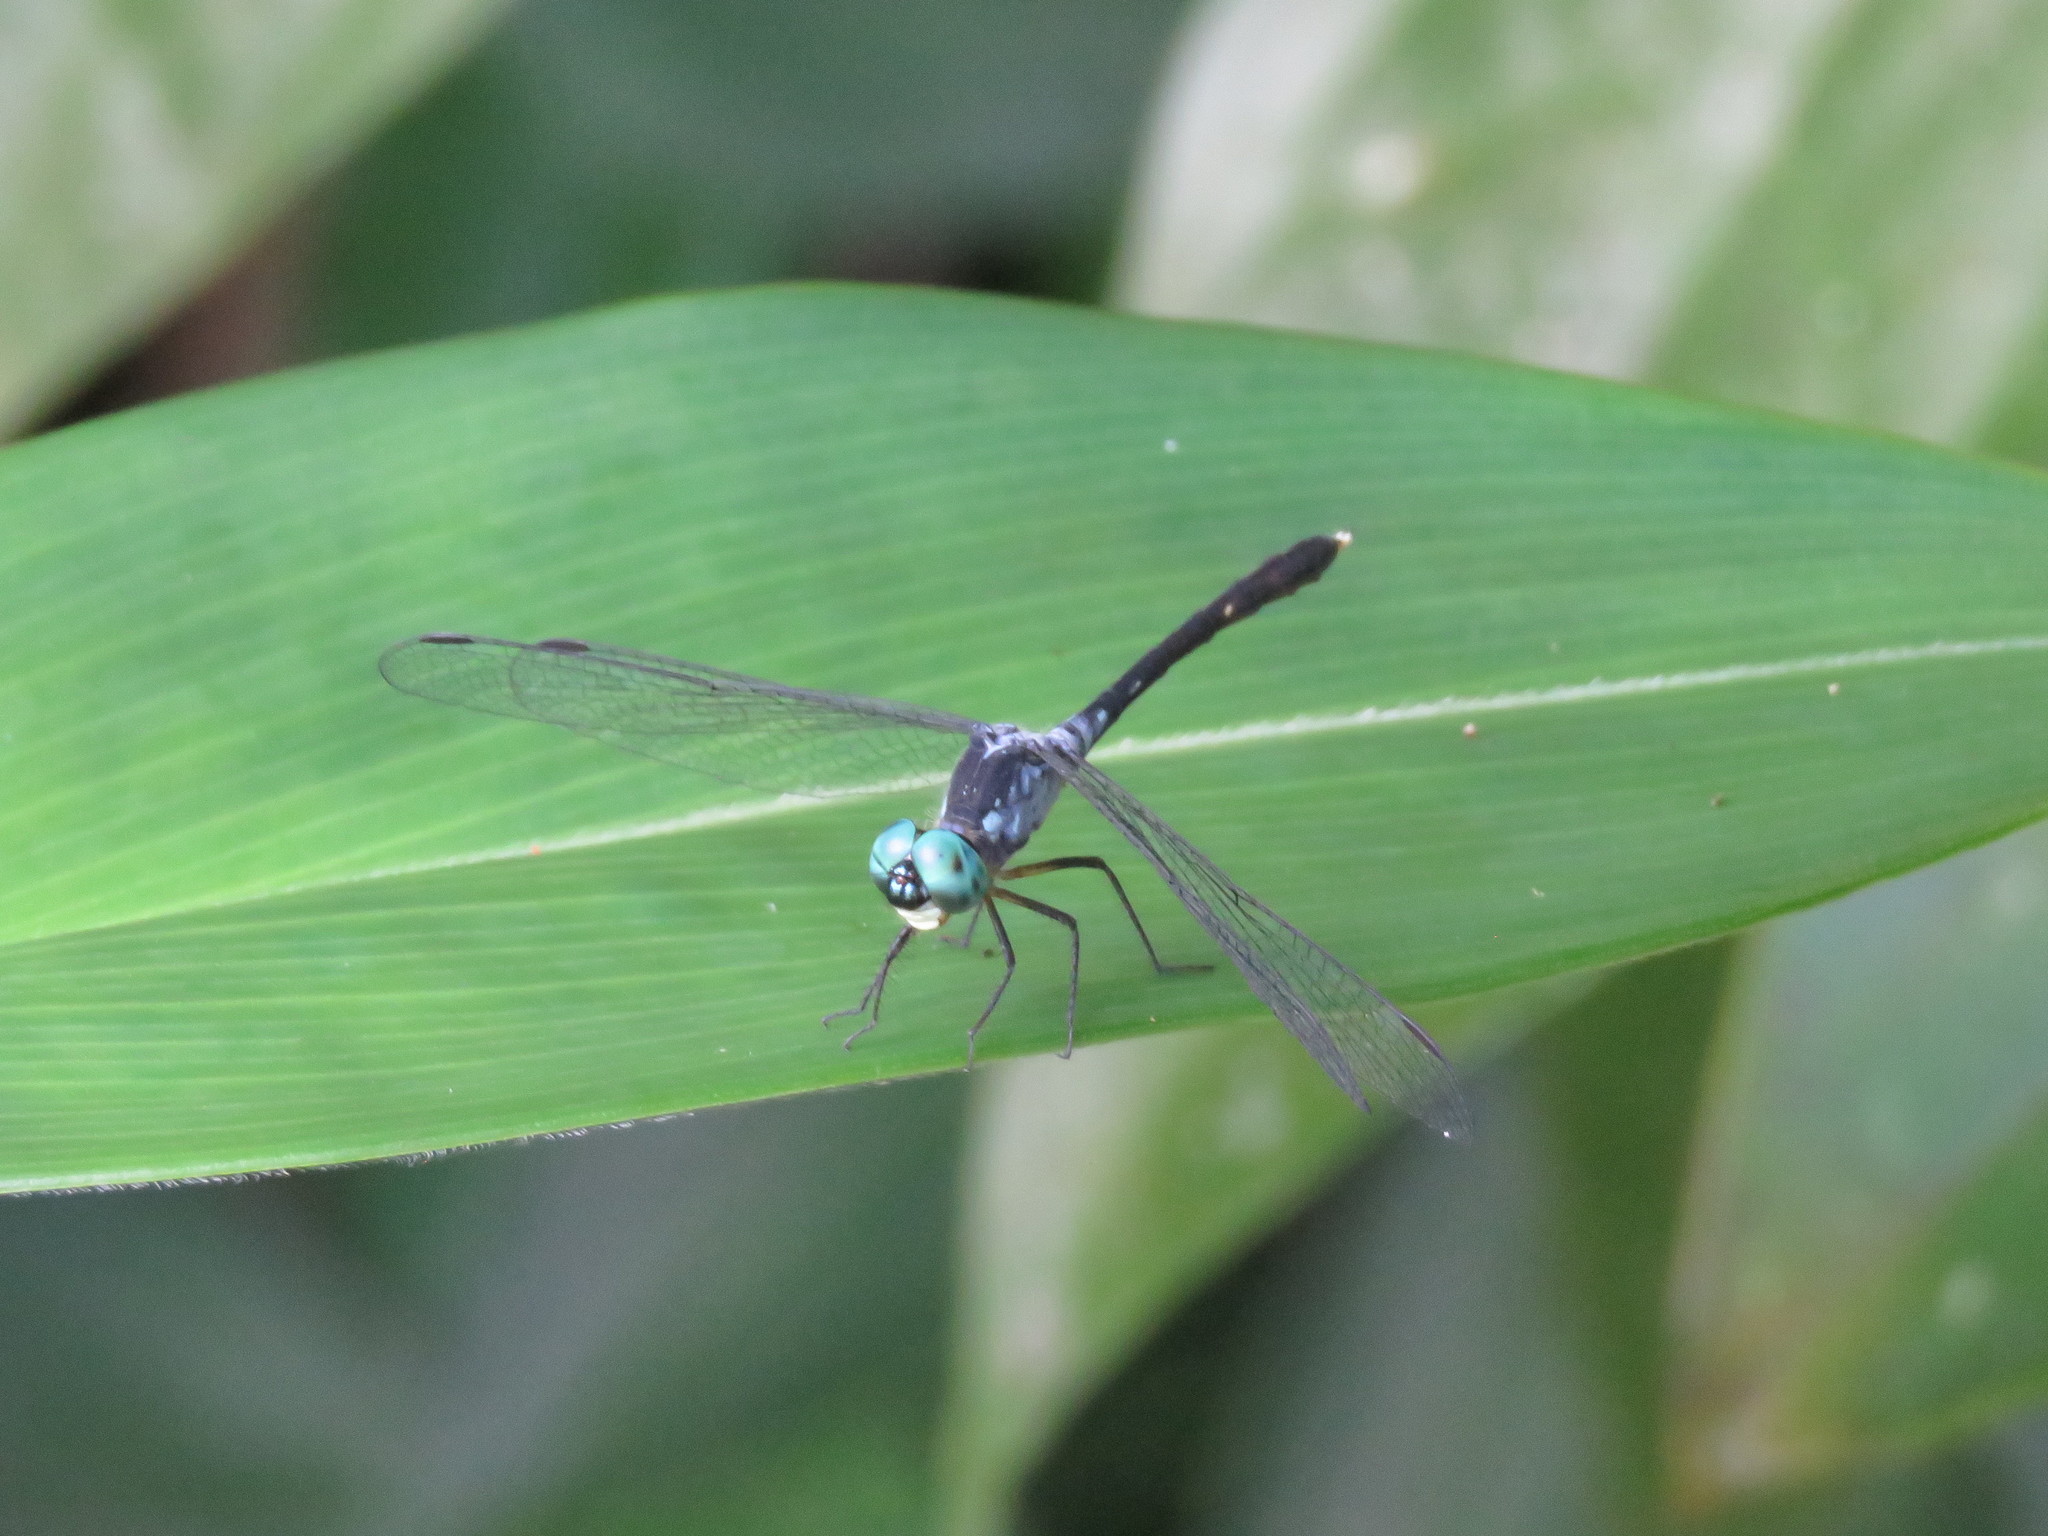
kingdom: Animalia
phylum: Arthropoda
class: Insecta
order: Odonata
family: Libellulidae
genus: Anatya
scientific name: Anatya guttata
